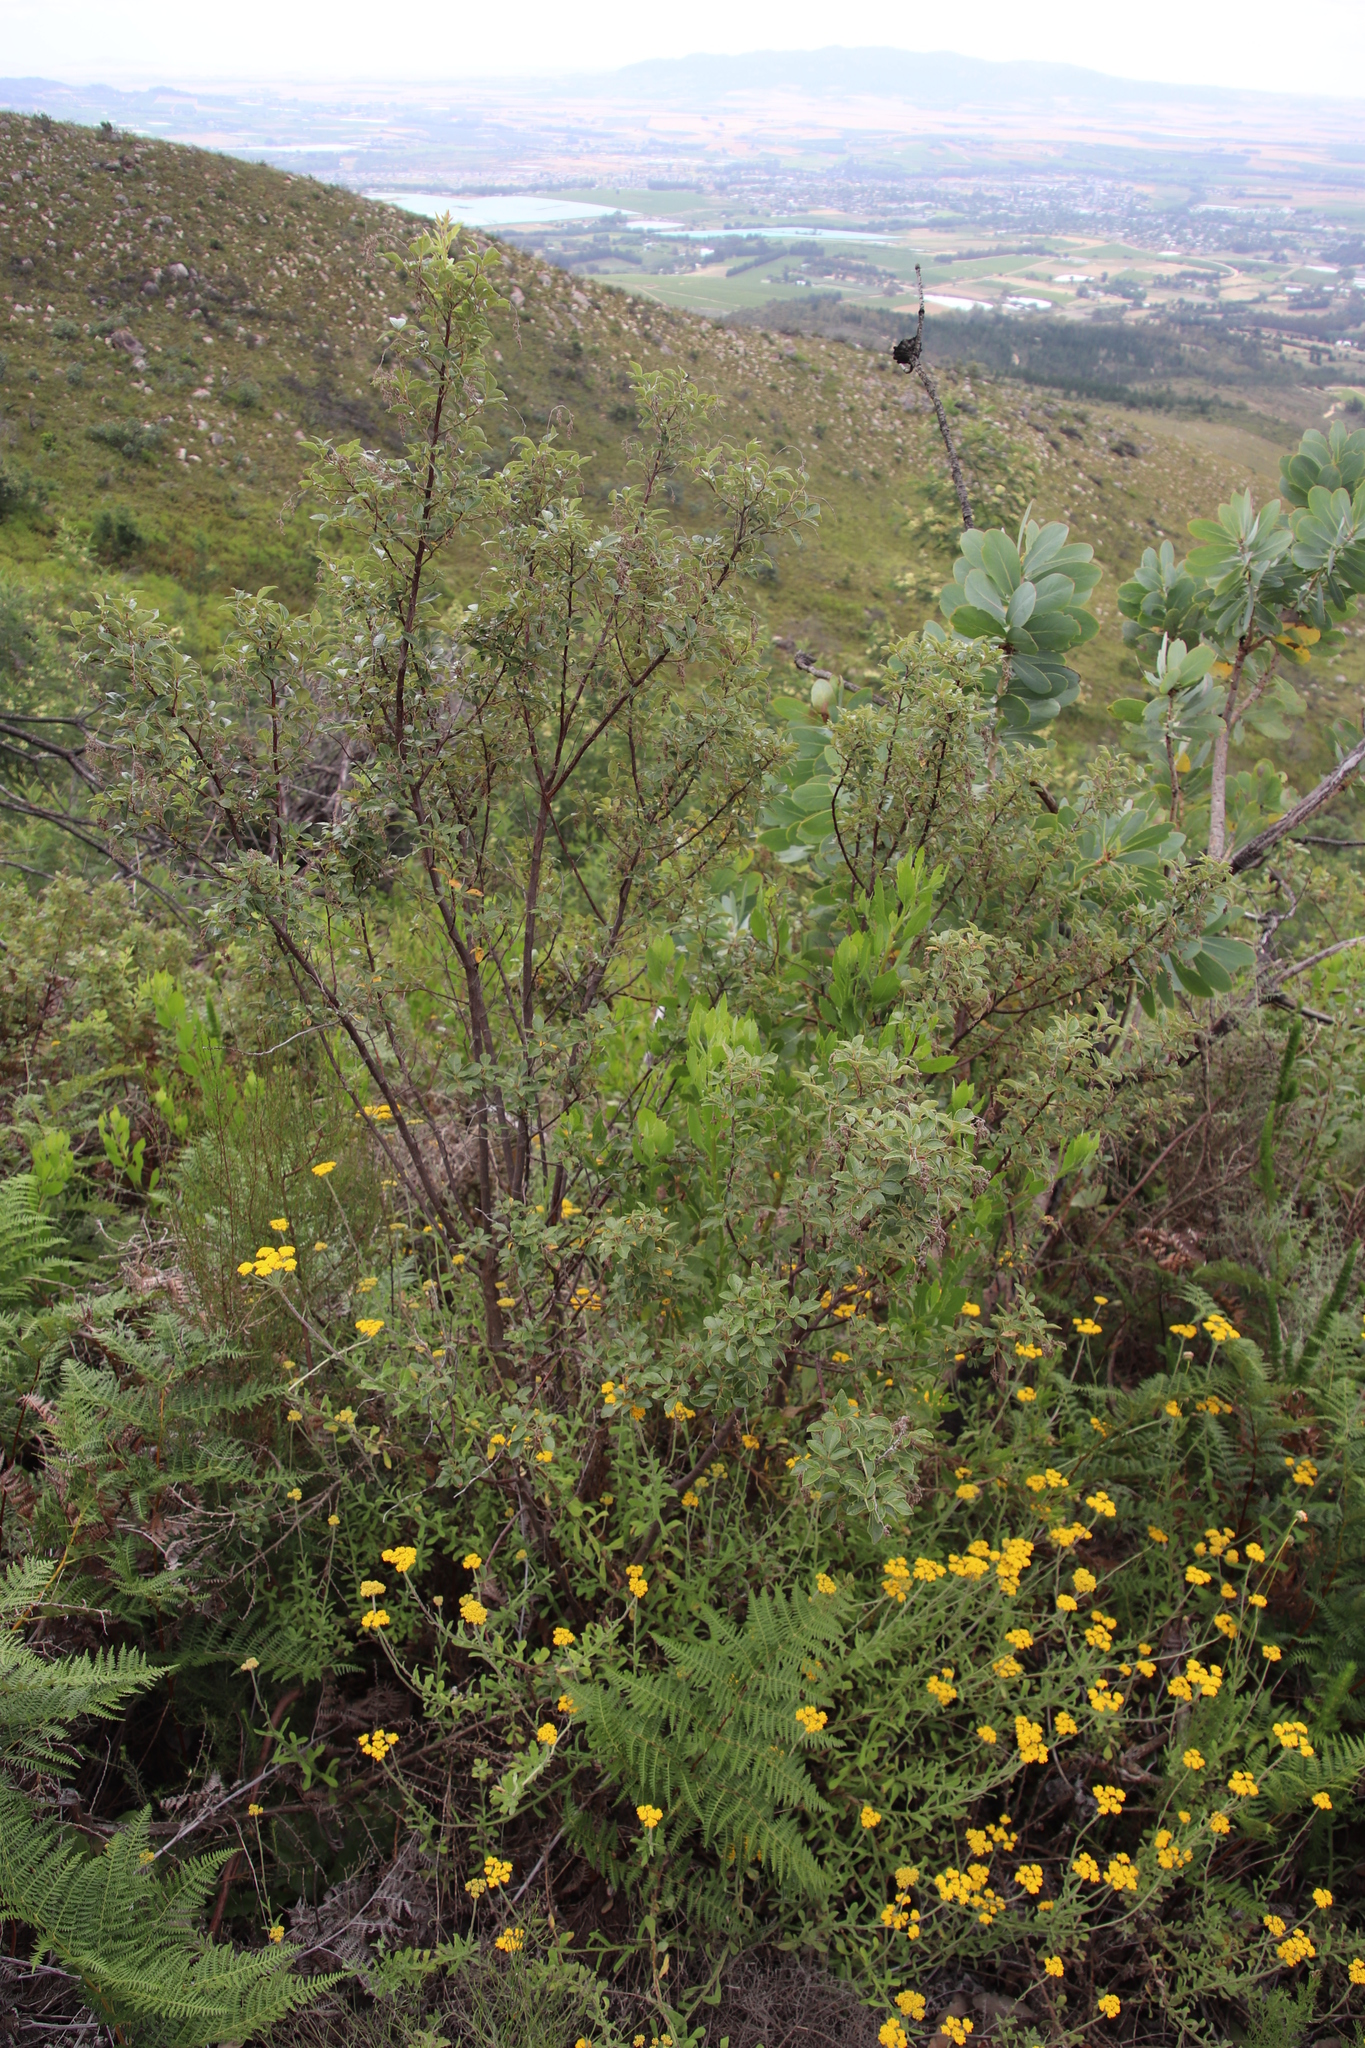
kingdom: Plantae
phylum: Tracheophyta
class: Magnoliopsida
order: Sapindales
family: Anacardiaceae
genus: Searsia
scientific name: Searsia tomentosa
